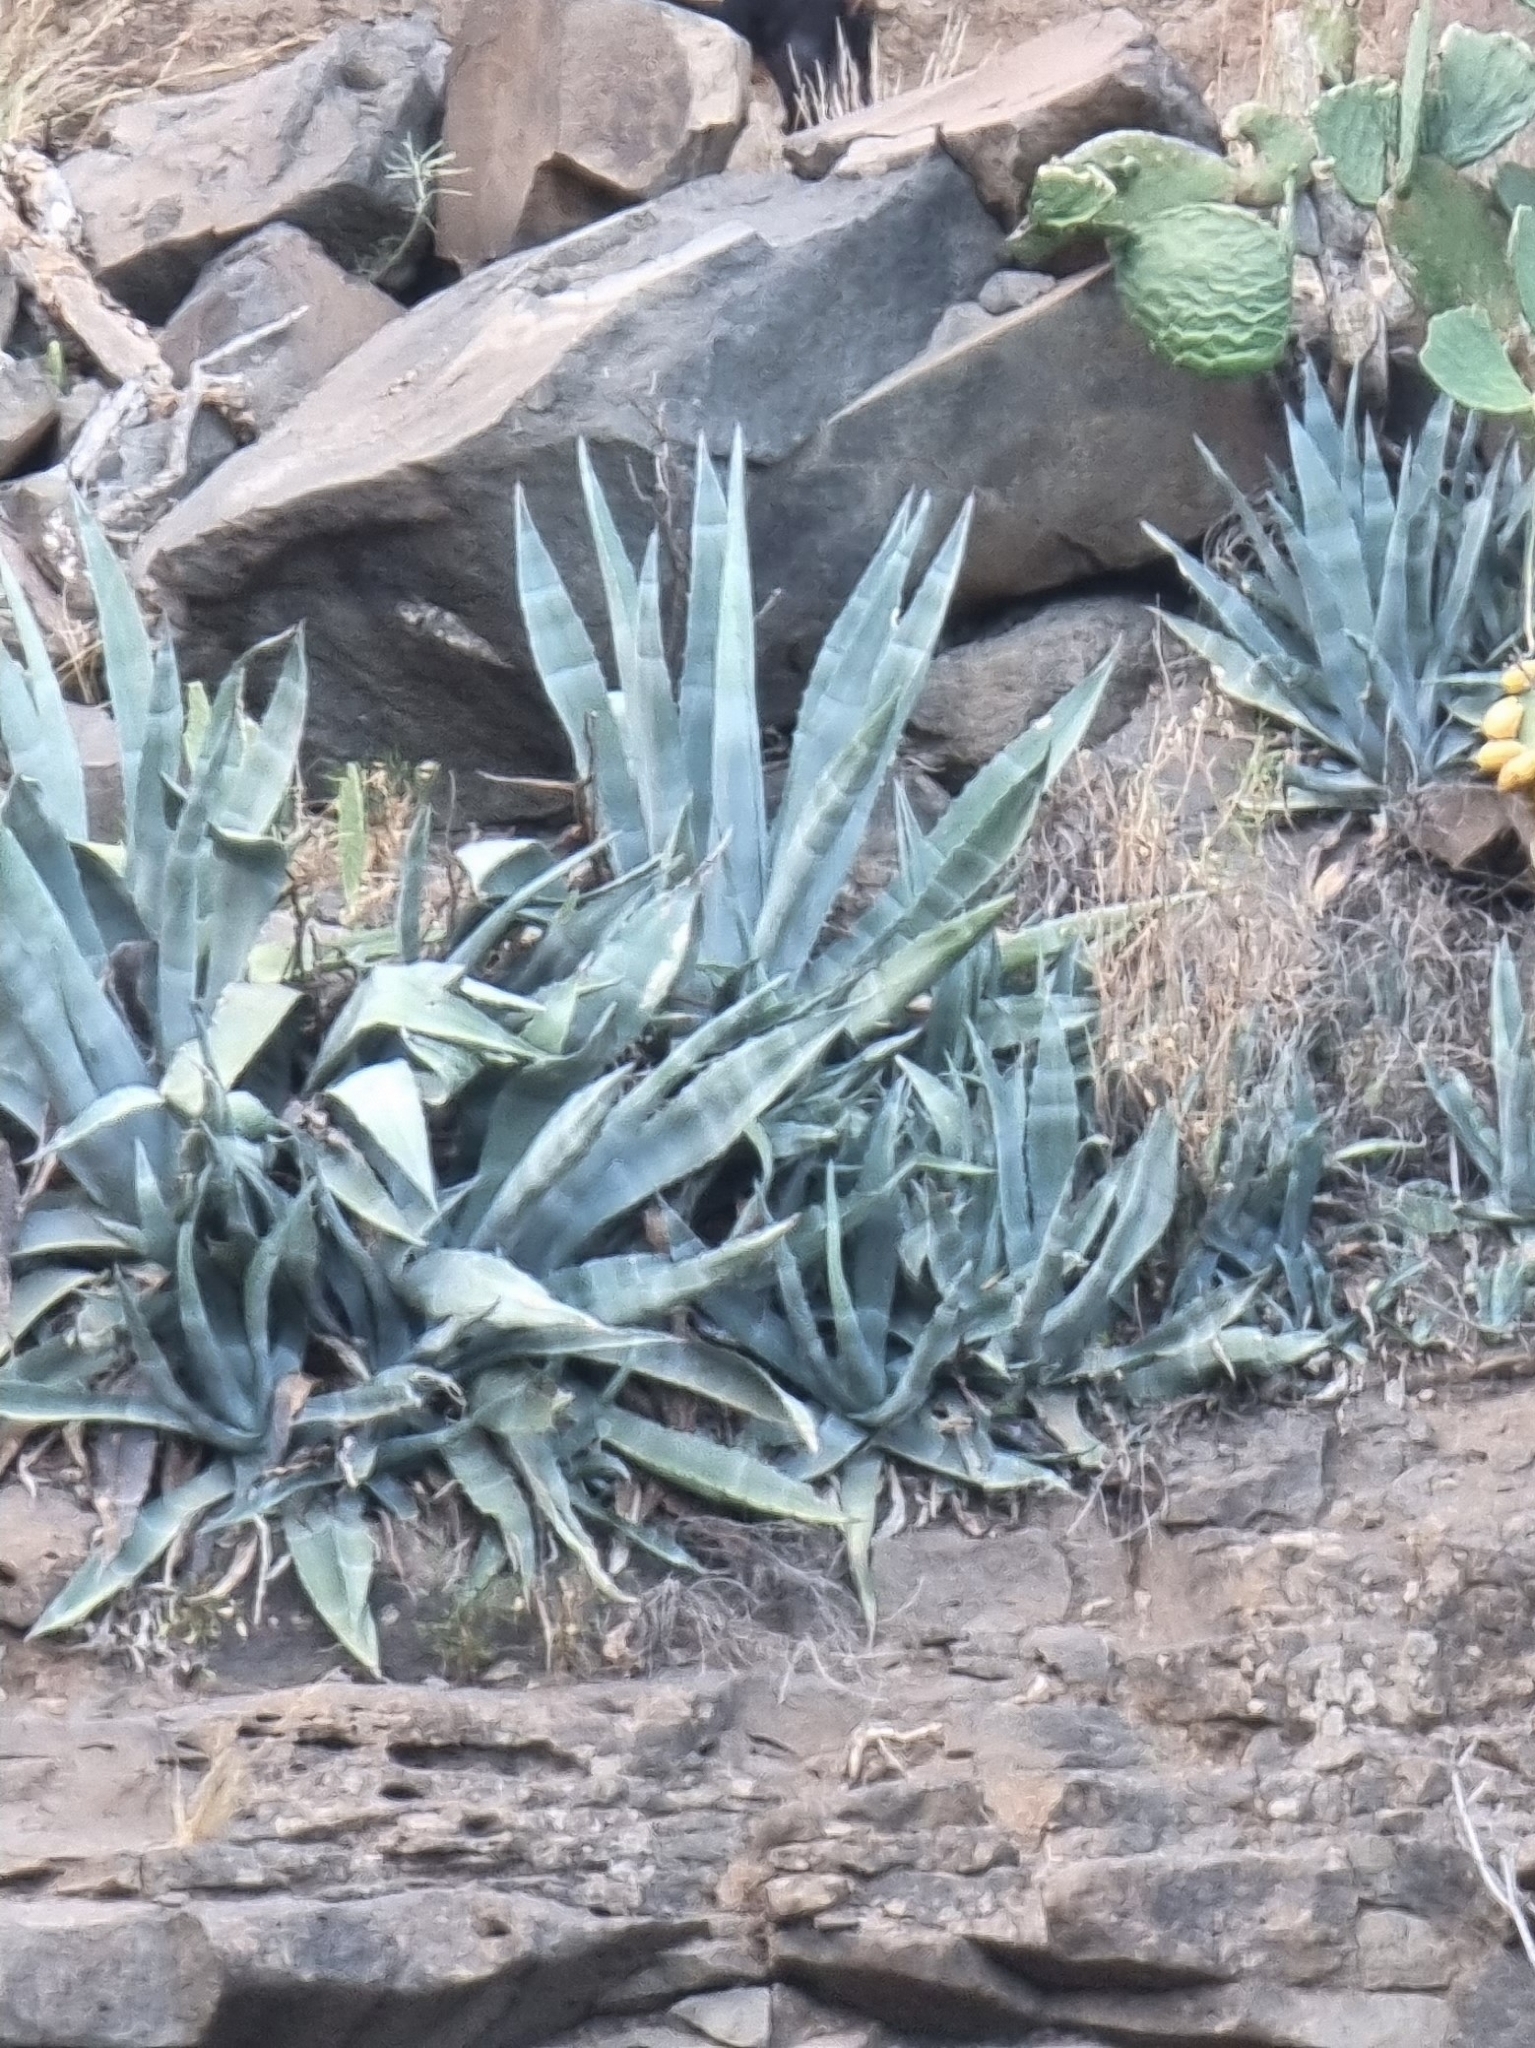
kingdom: Plantae
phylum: Tracheophyta
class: Liliopsida
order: Asparagales
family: Asparagaceae
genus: Agave
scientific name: Agave americana
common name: Centuryplant
